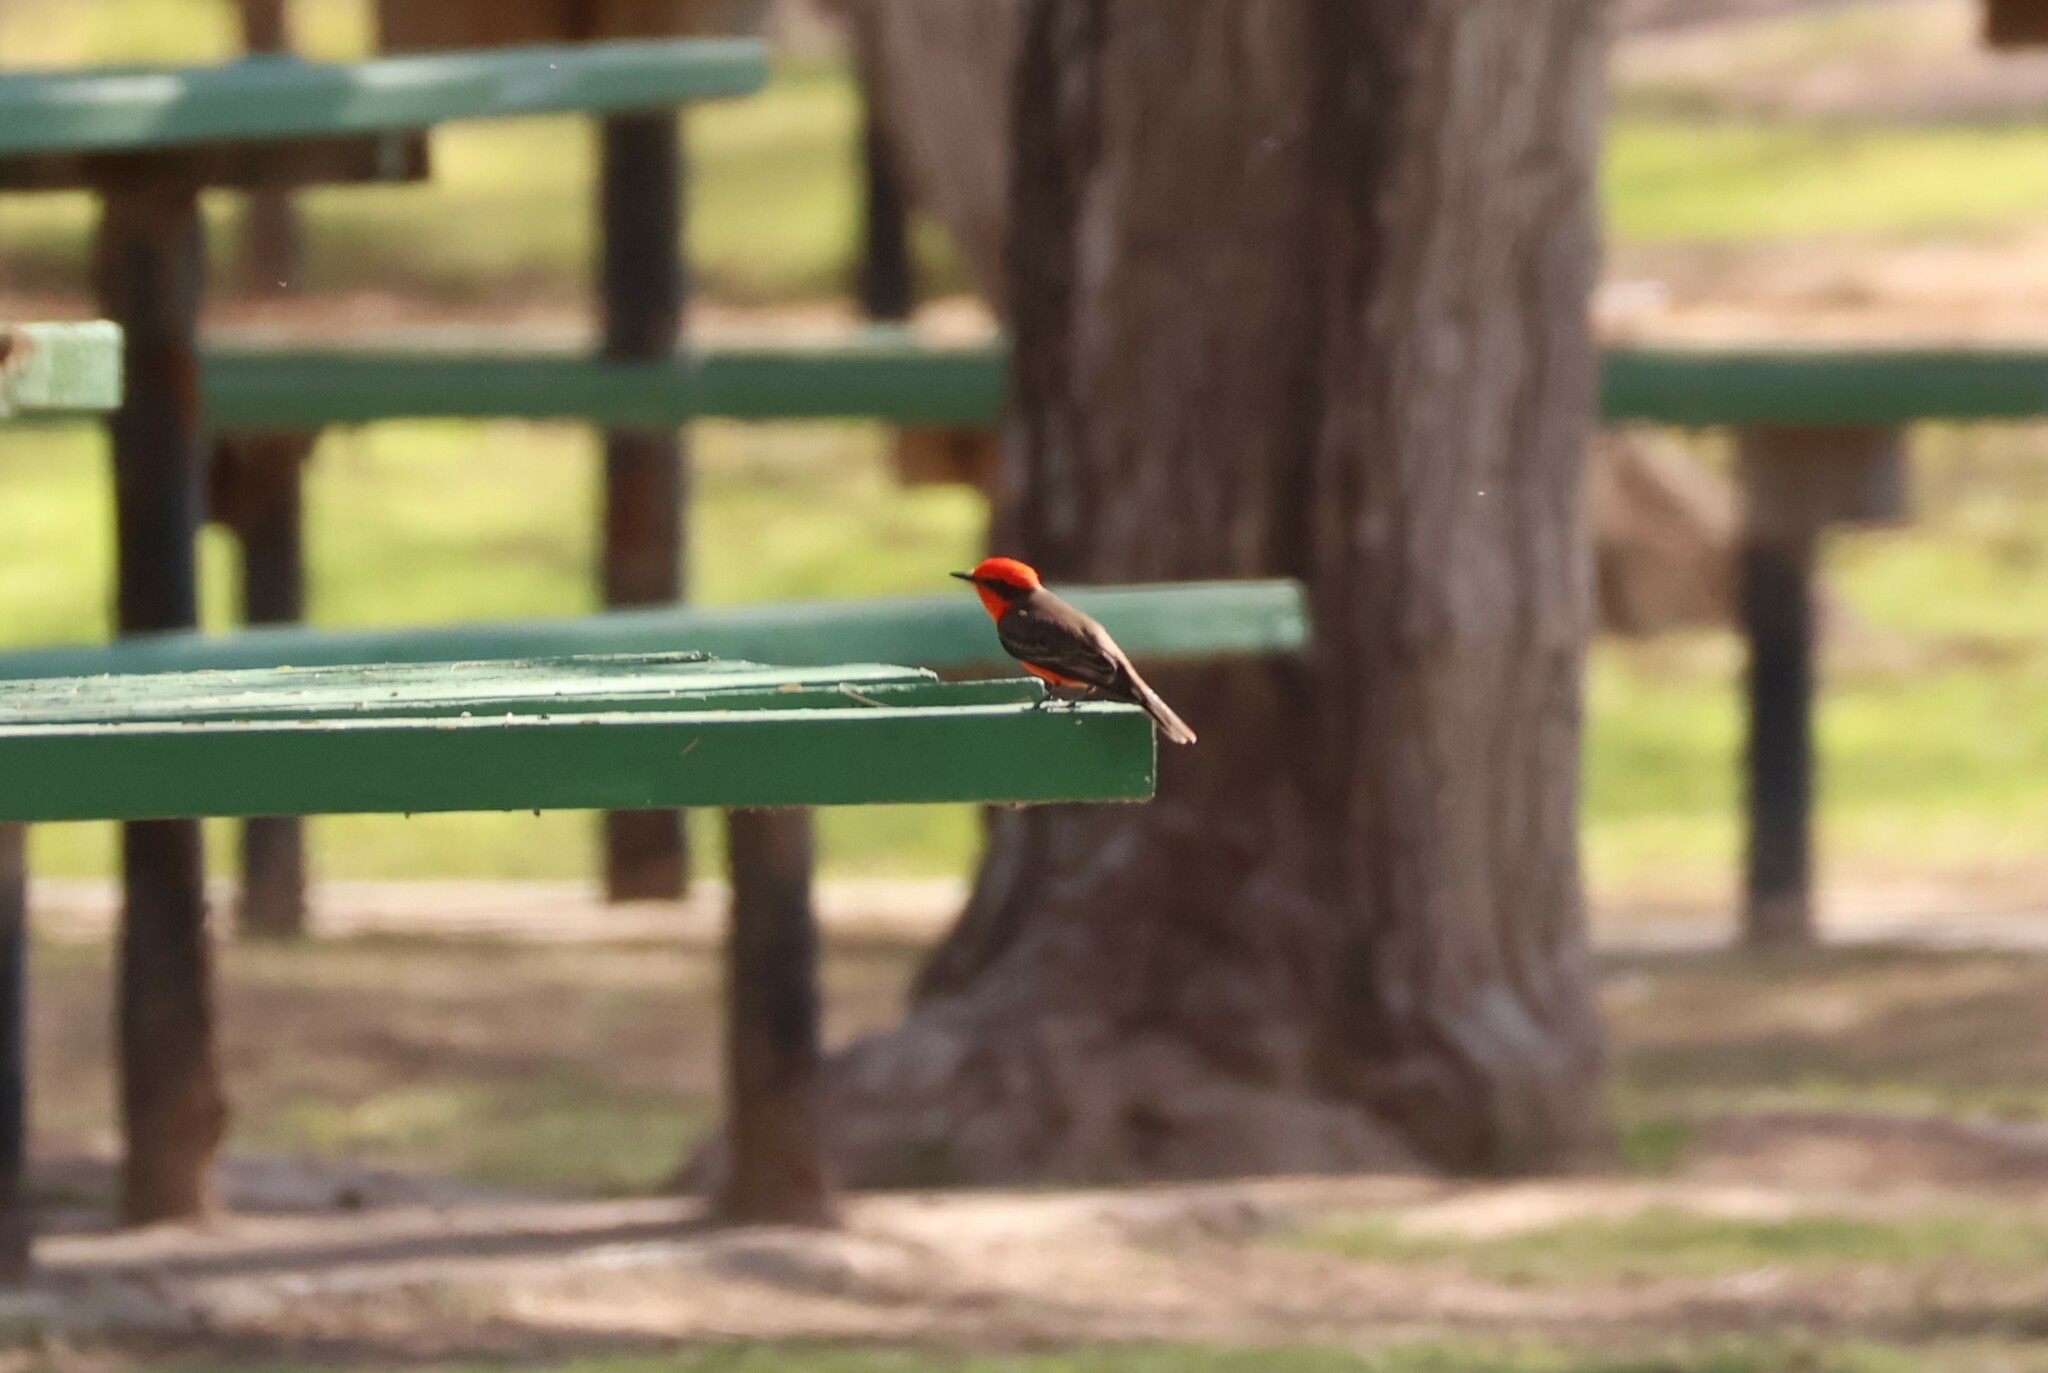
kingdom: Animalia
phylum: Chordata
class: Aves
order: Passeriformes
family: Tyrannidae
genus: Pyrocephalus
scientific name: Pyrocephalus rubinus
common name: Vermilion flycatcher
